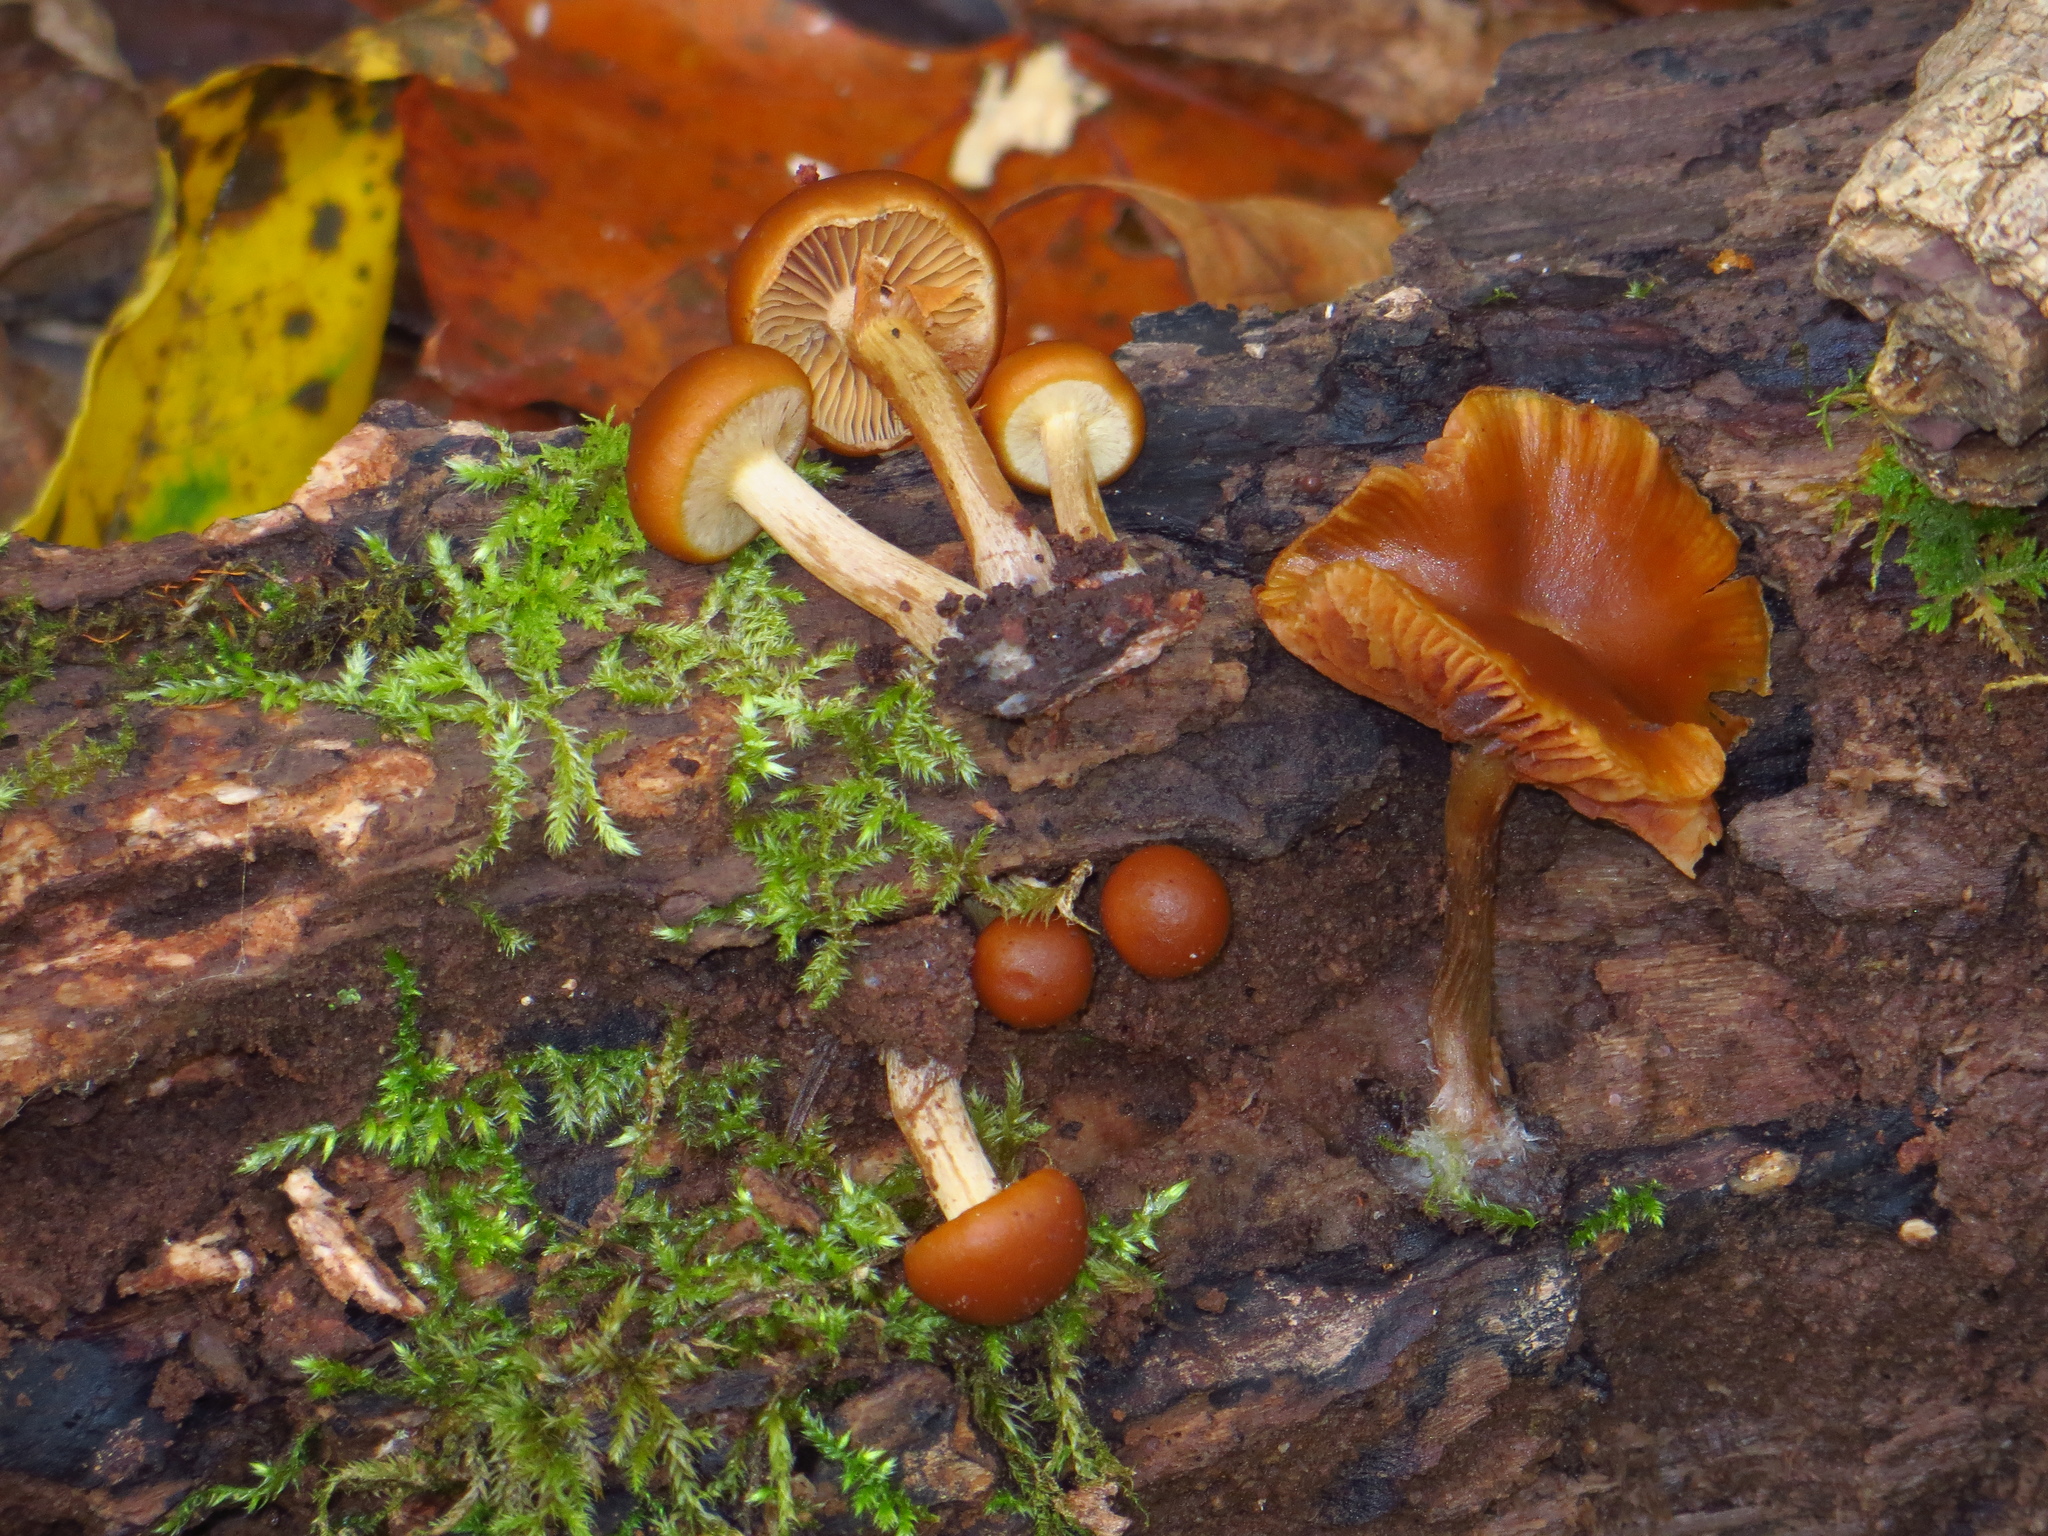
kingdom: Fungi
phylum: Basidiomycota
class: Agaricomycetes
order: Agaricales
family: Hymenogastraceae
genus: Galerina
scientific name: Galerina marginata
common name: Funeral bell
